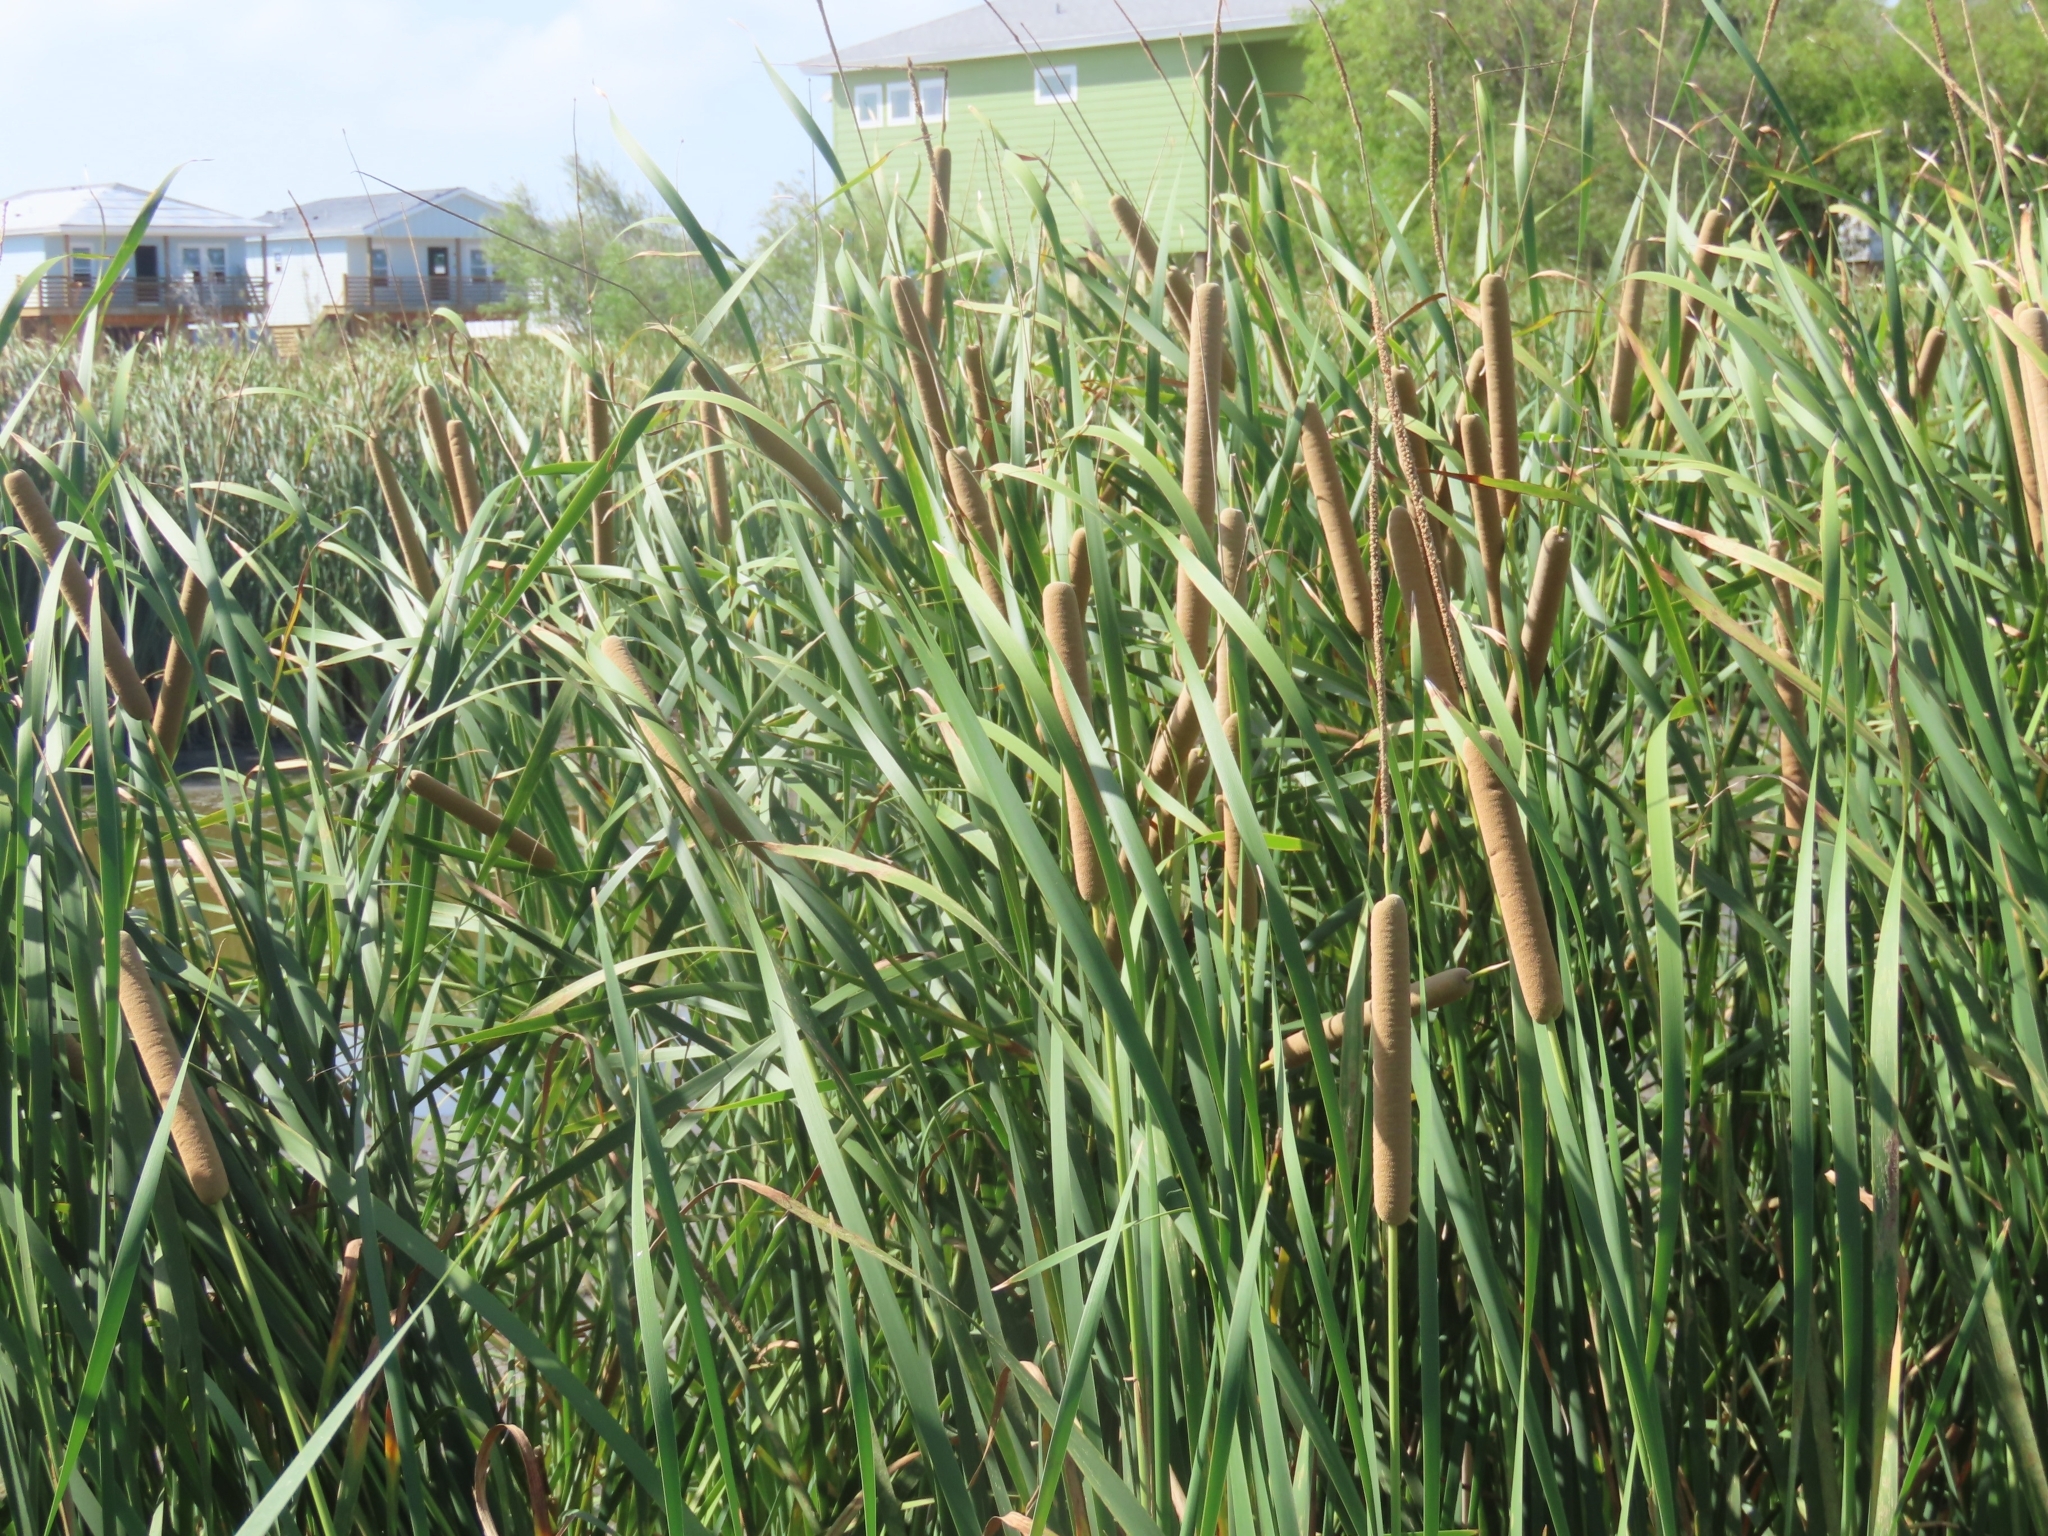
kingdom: Plantae
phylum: Tracheophyta
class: Liliopsida
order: Poales
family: Typhaceae
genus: Typha
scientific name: Typha domingensis
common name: Southern cattail
